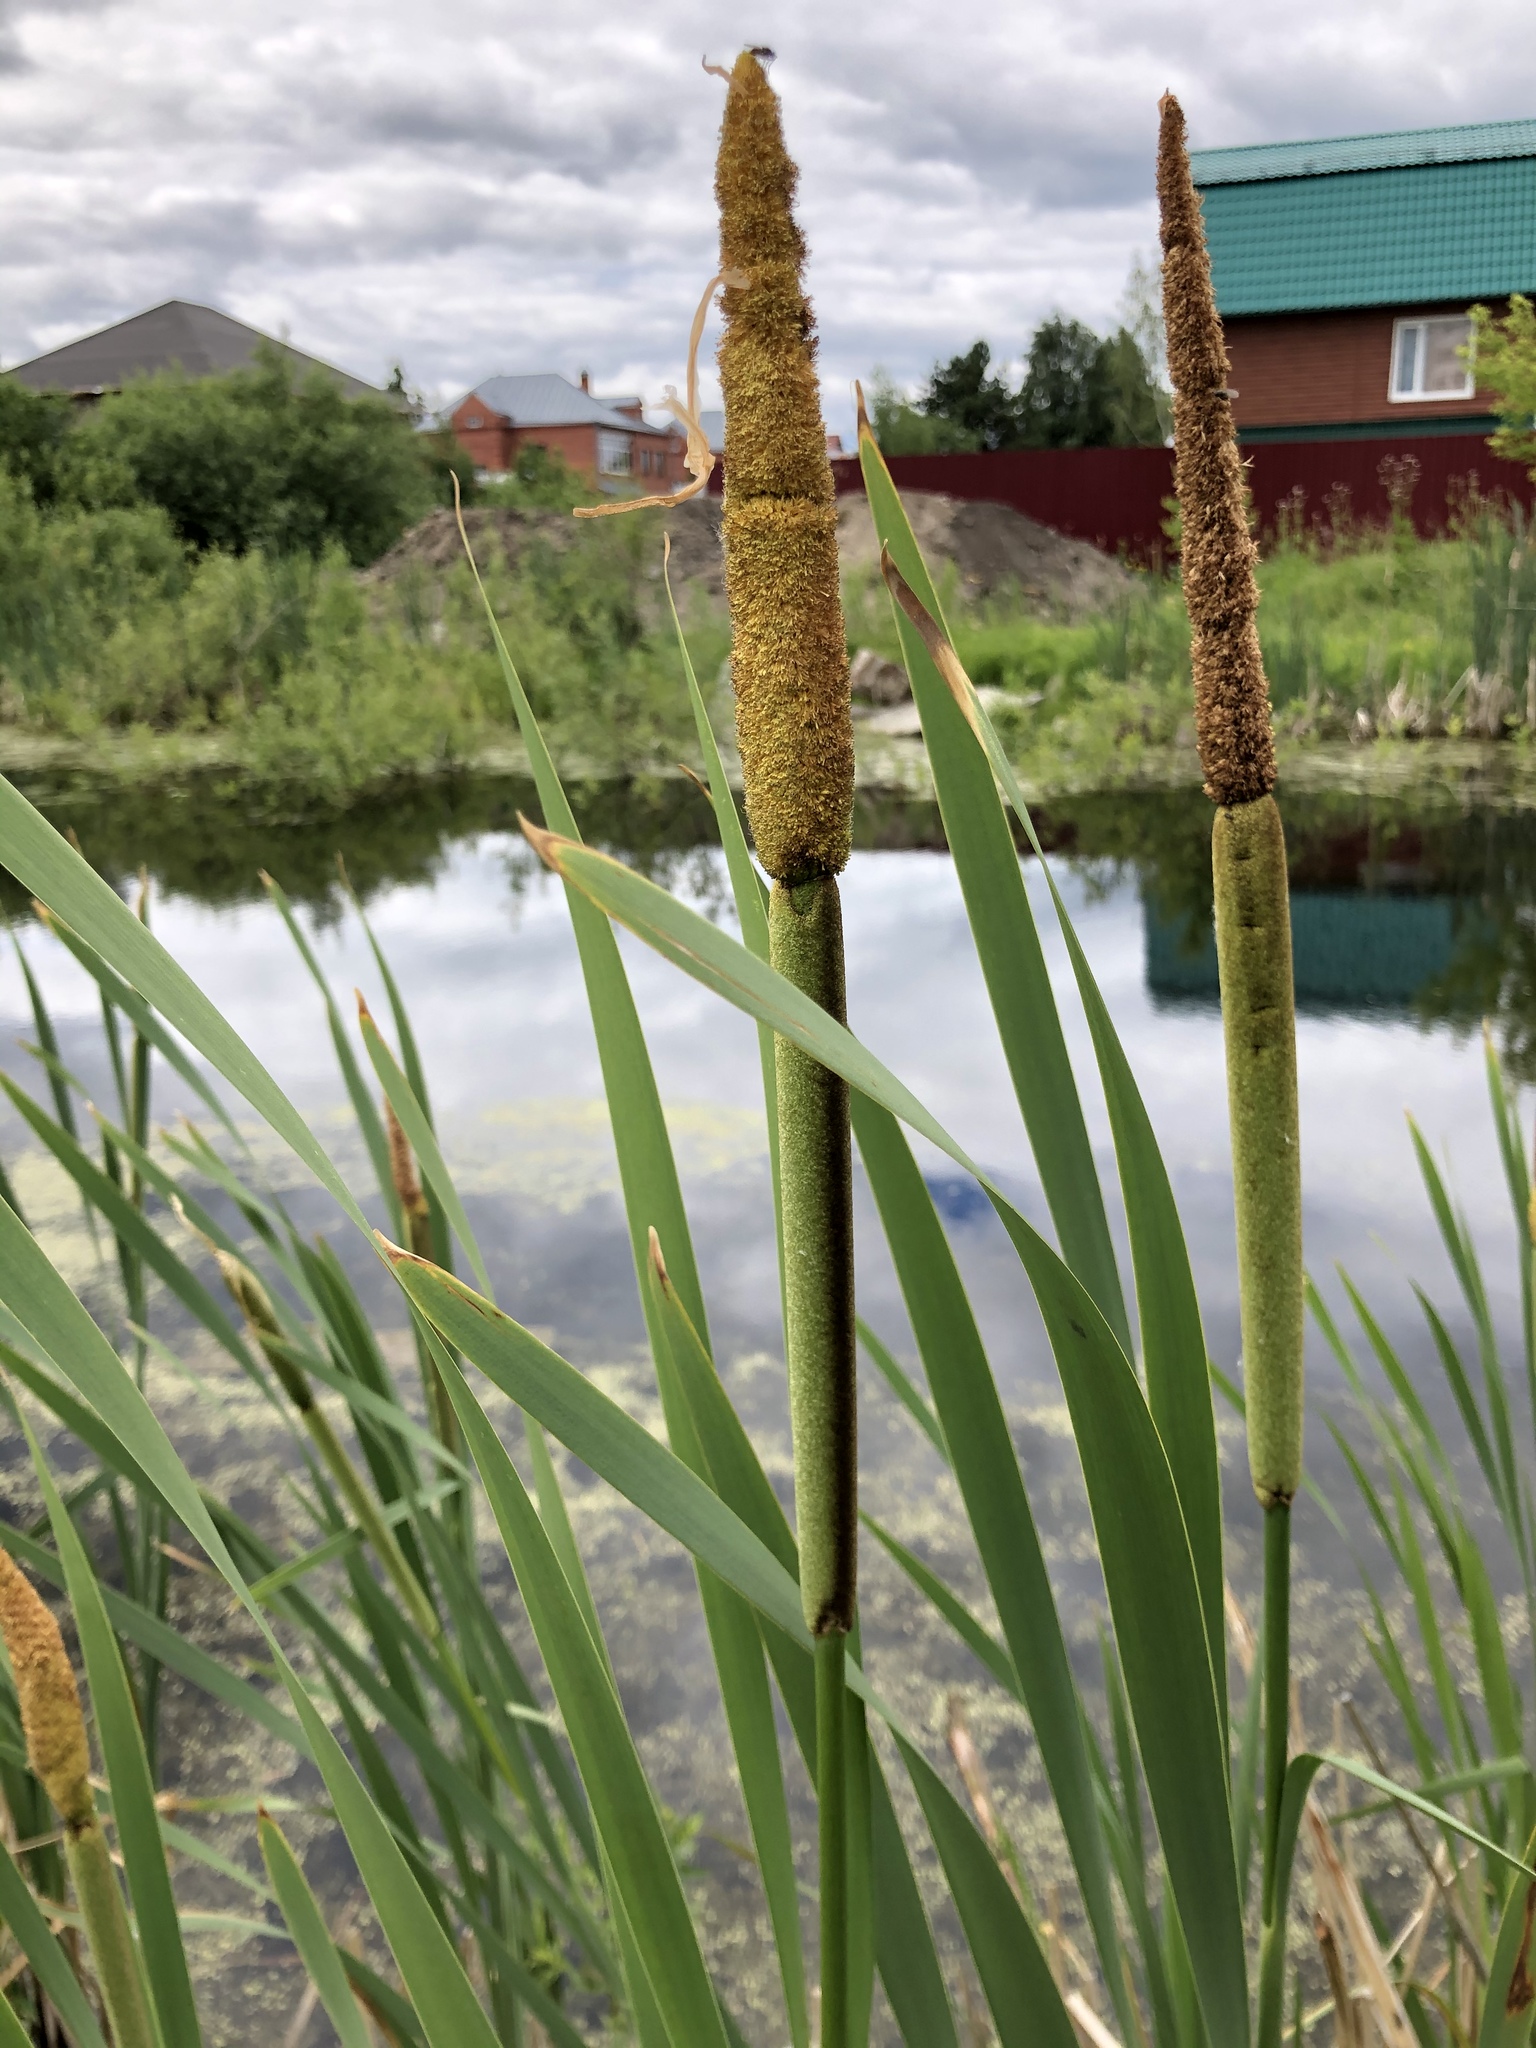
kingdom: Plantae
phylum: Tracheophyta
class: Liliopsida
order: Poales
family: Typhaceae
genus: Typha
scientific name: Typha latifolia
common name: Broadleaf cattail
